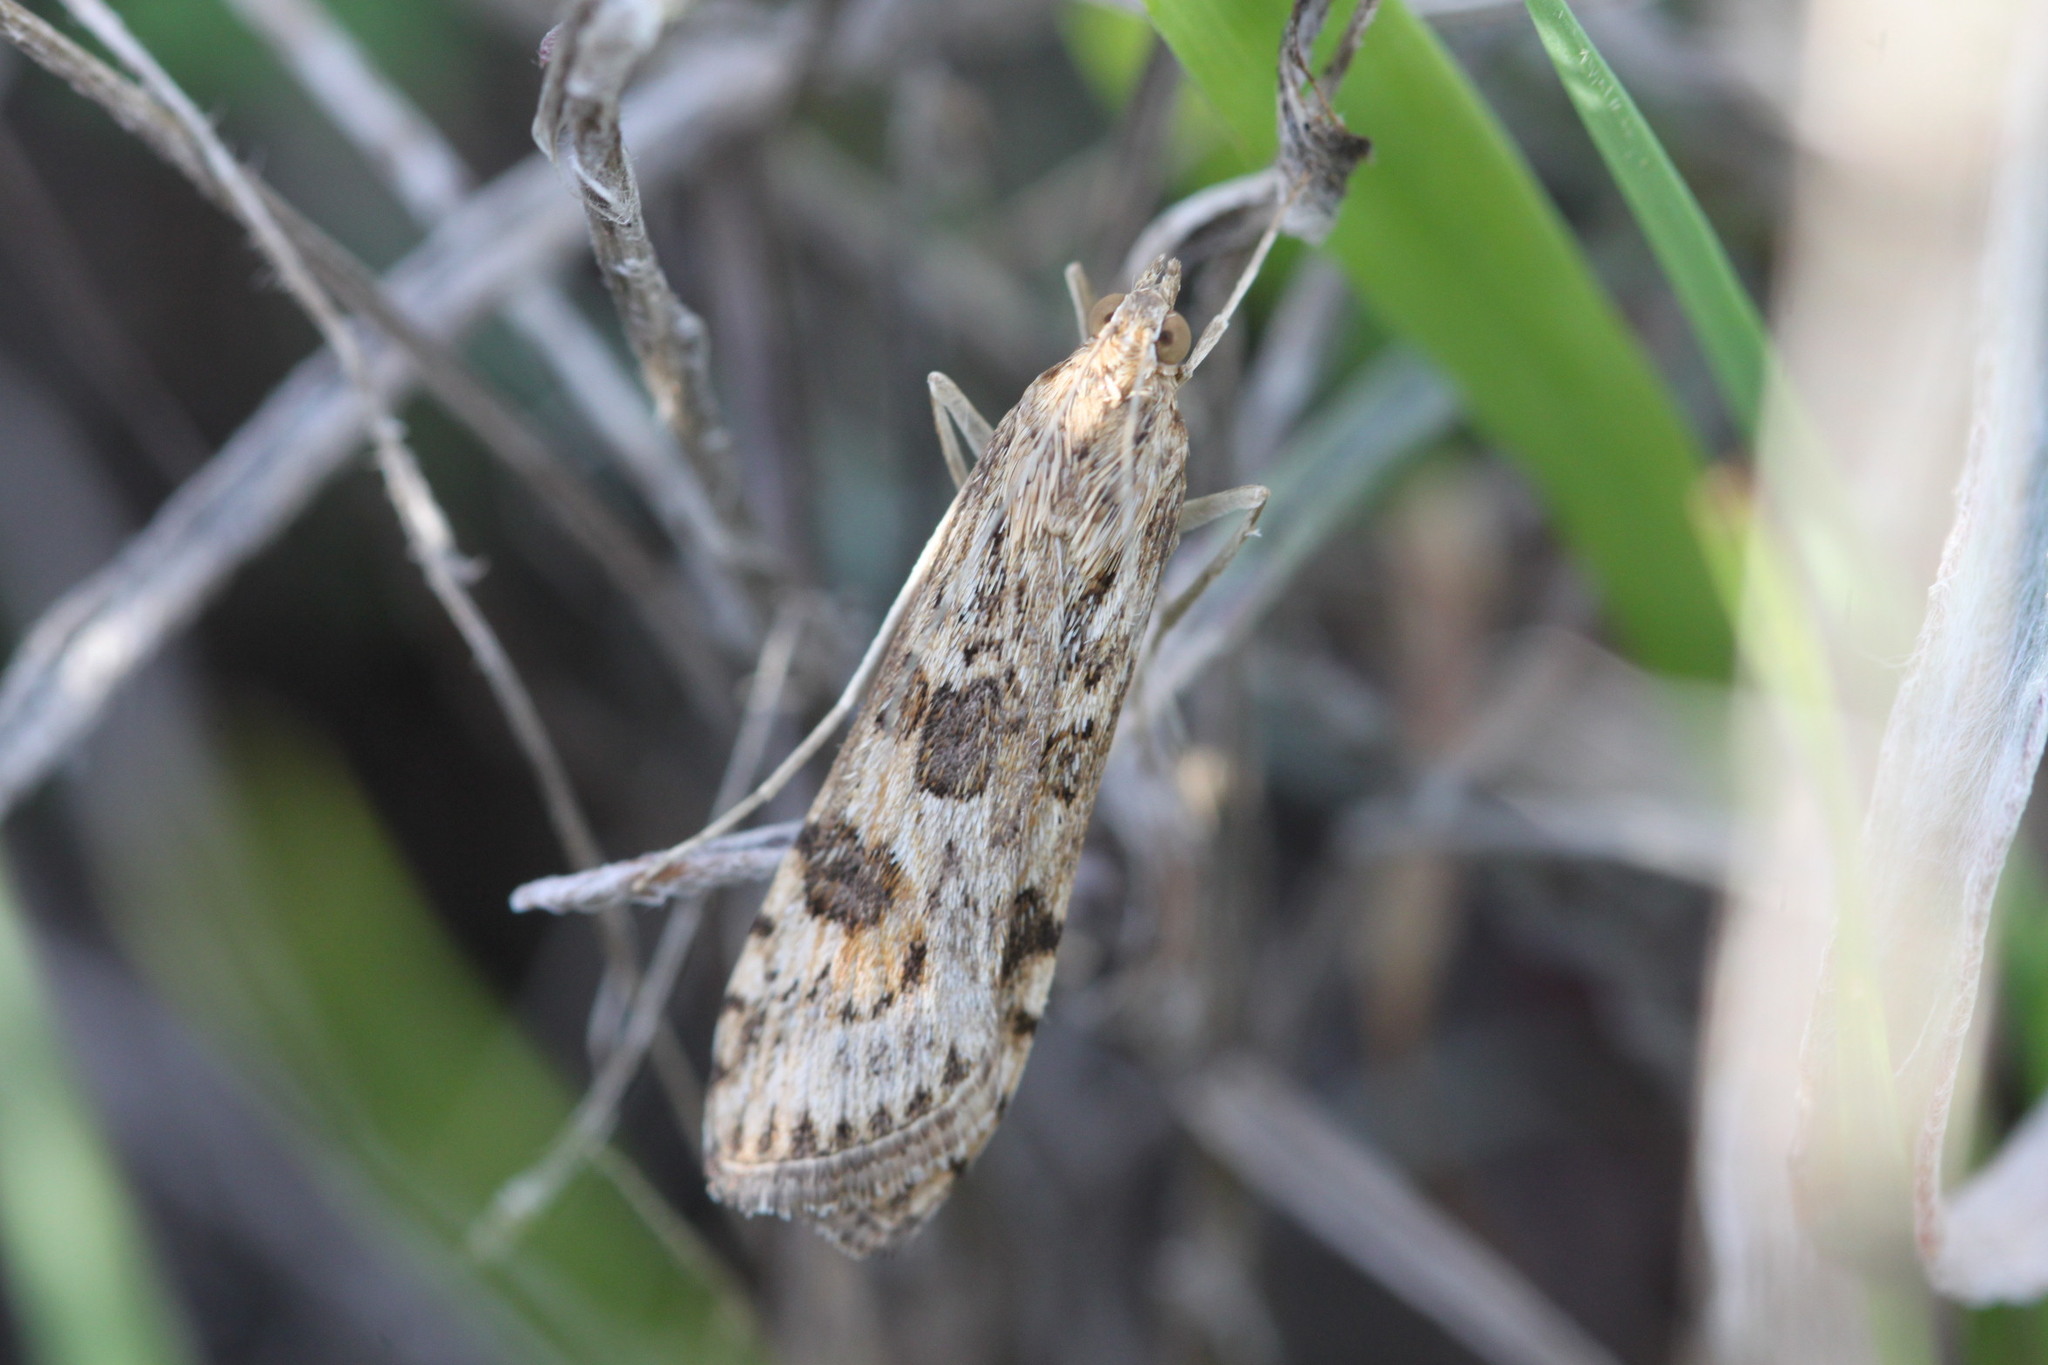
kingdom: Animalia
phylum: Arthropoda
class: Insecta
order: Lepidoptera
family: Crambidae
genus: Nomophila
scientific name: Nomophila noctuella
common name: Rush veneer
